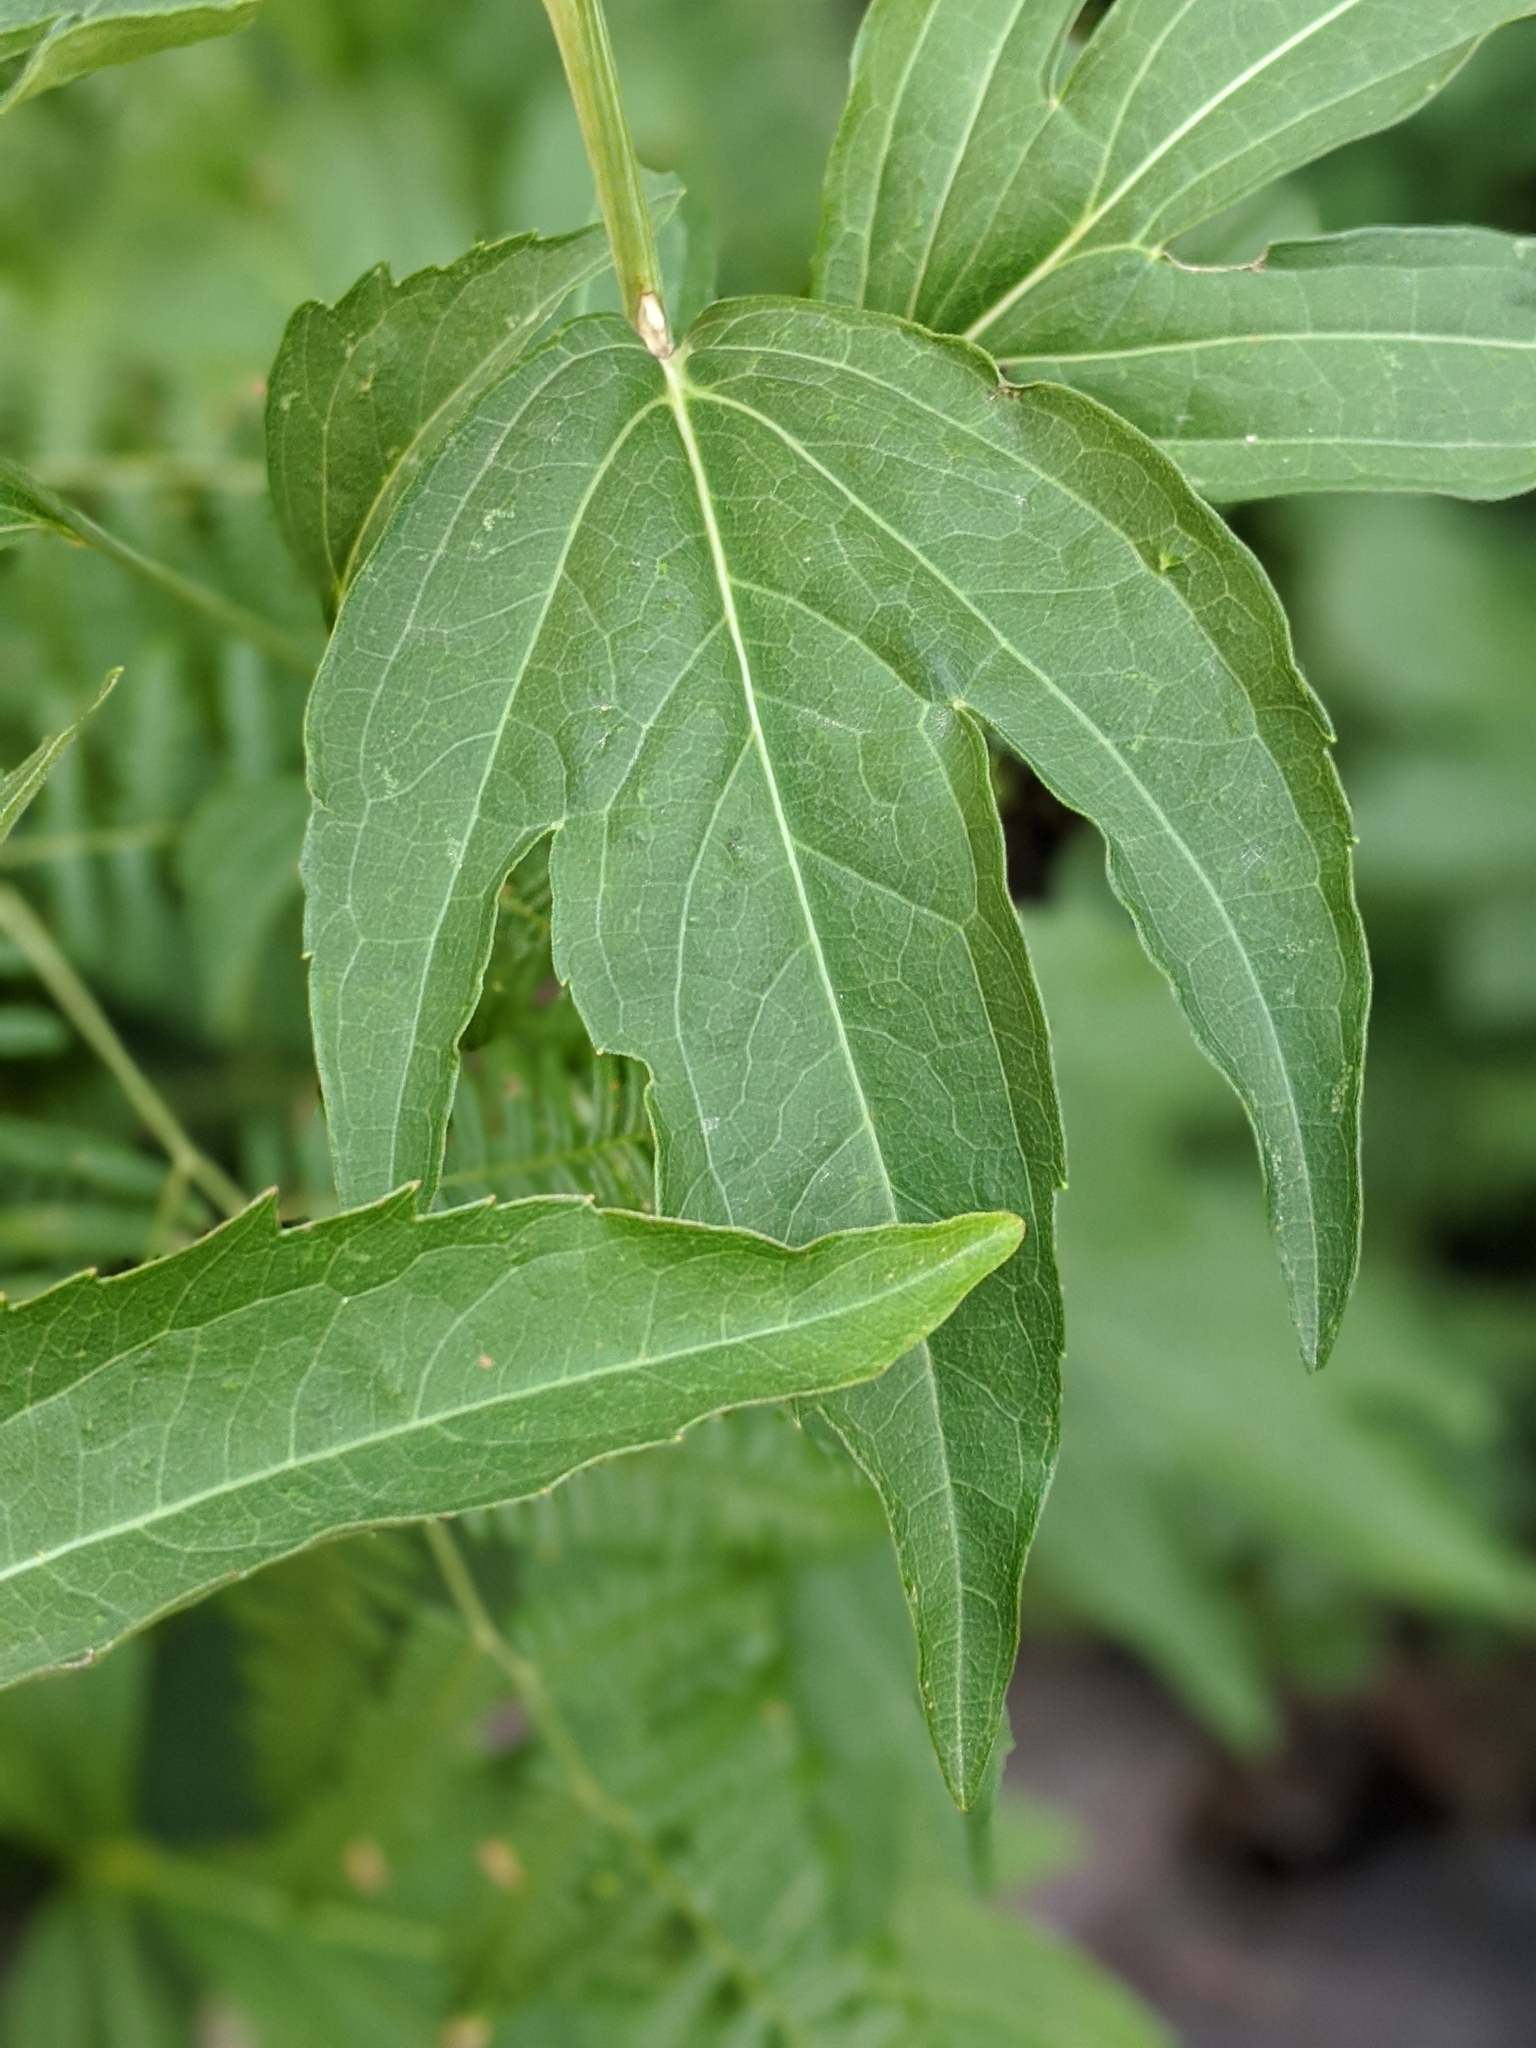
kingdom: Plantae
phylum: Tracheophyta
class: Magnoliopsida
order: Asterales
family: Asteraceae
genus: Rudbeckia
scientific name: Rudbeckia laciniata
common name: Coneflower
